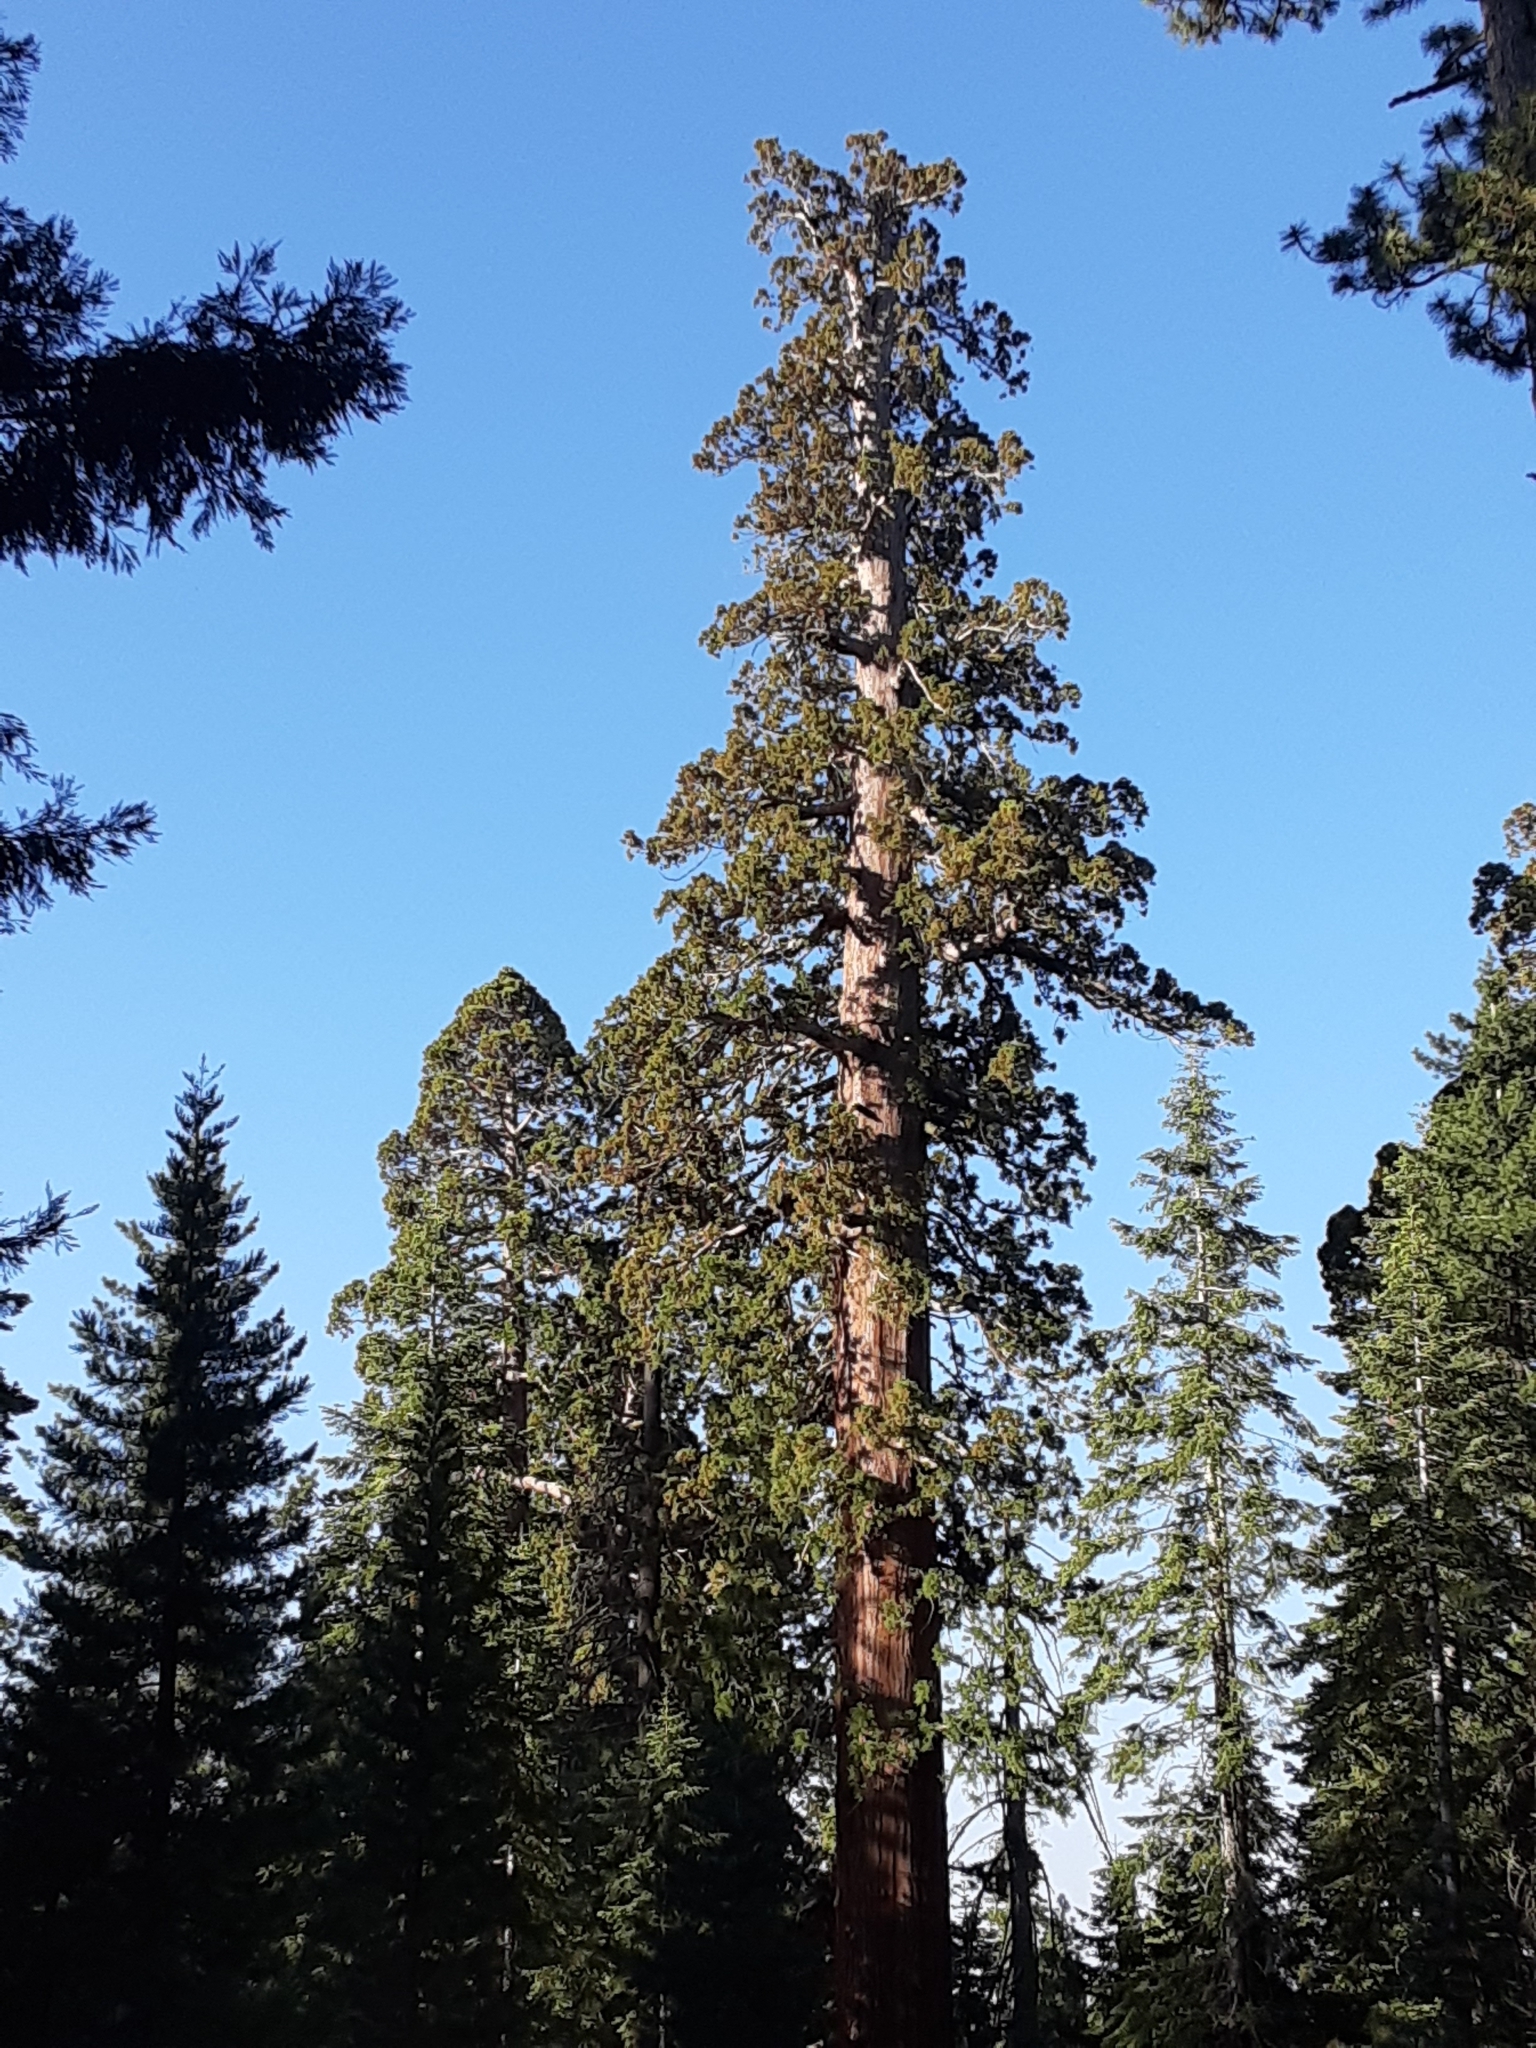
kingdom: Plantae
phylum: Tracheophyta
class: Pinopsida
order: Pinales
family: Cupressaceae
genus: Sequoiadendron
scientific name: Sequoiadendron giganteum
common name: Wellingtonia
